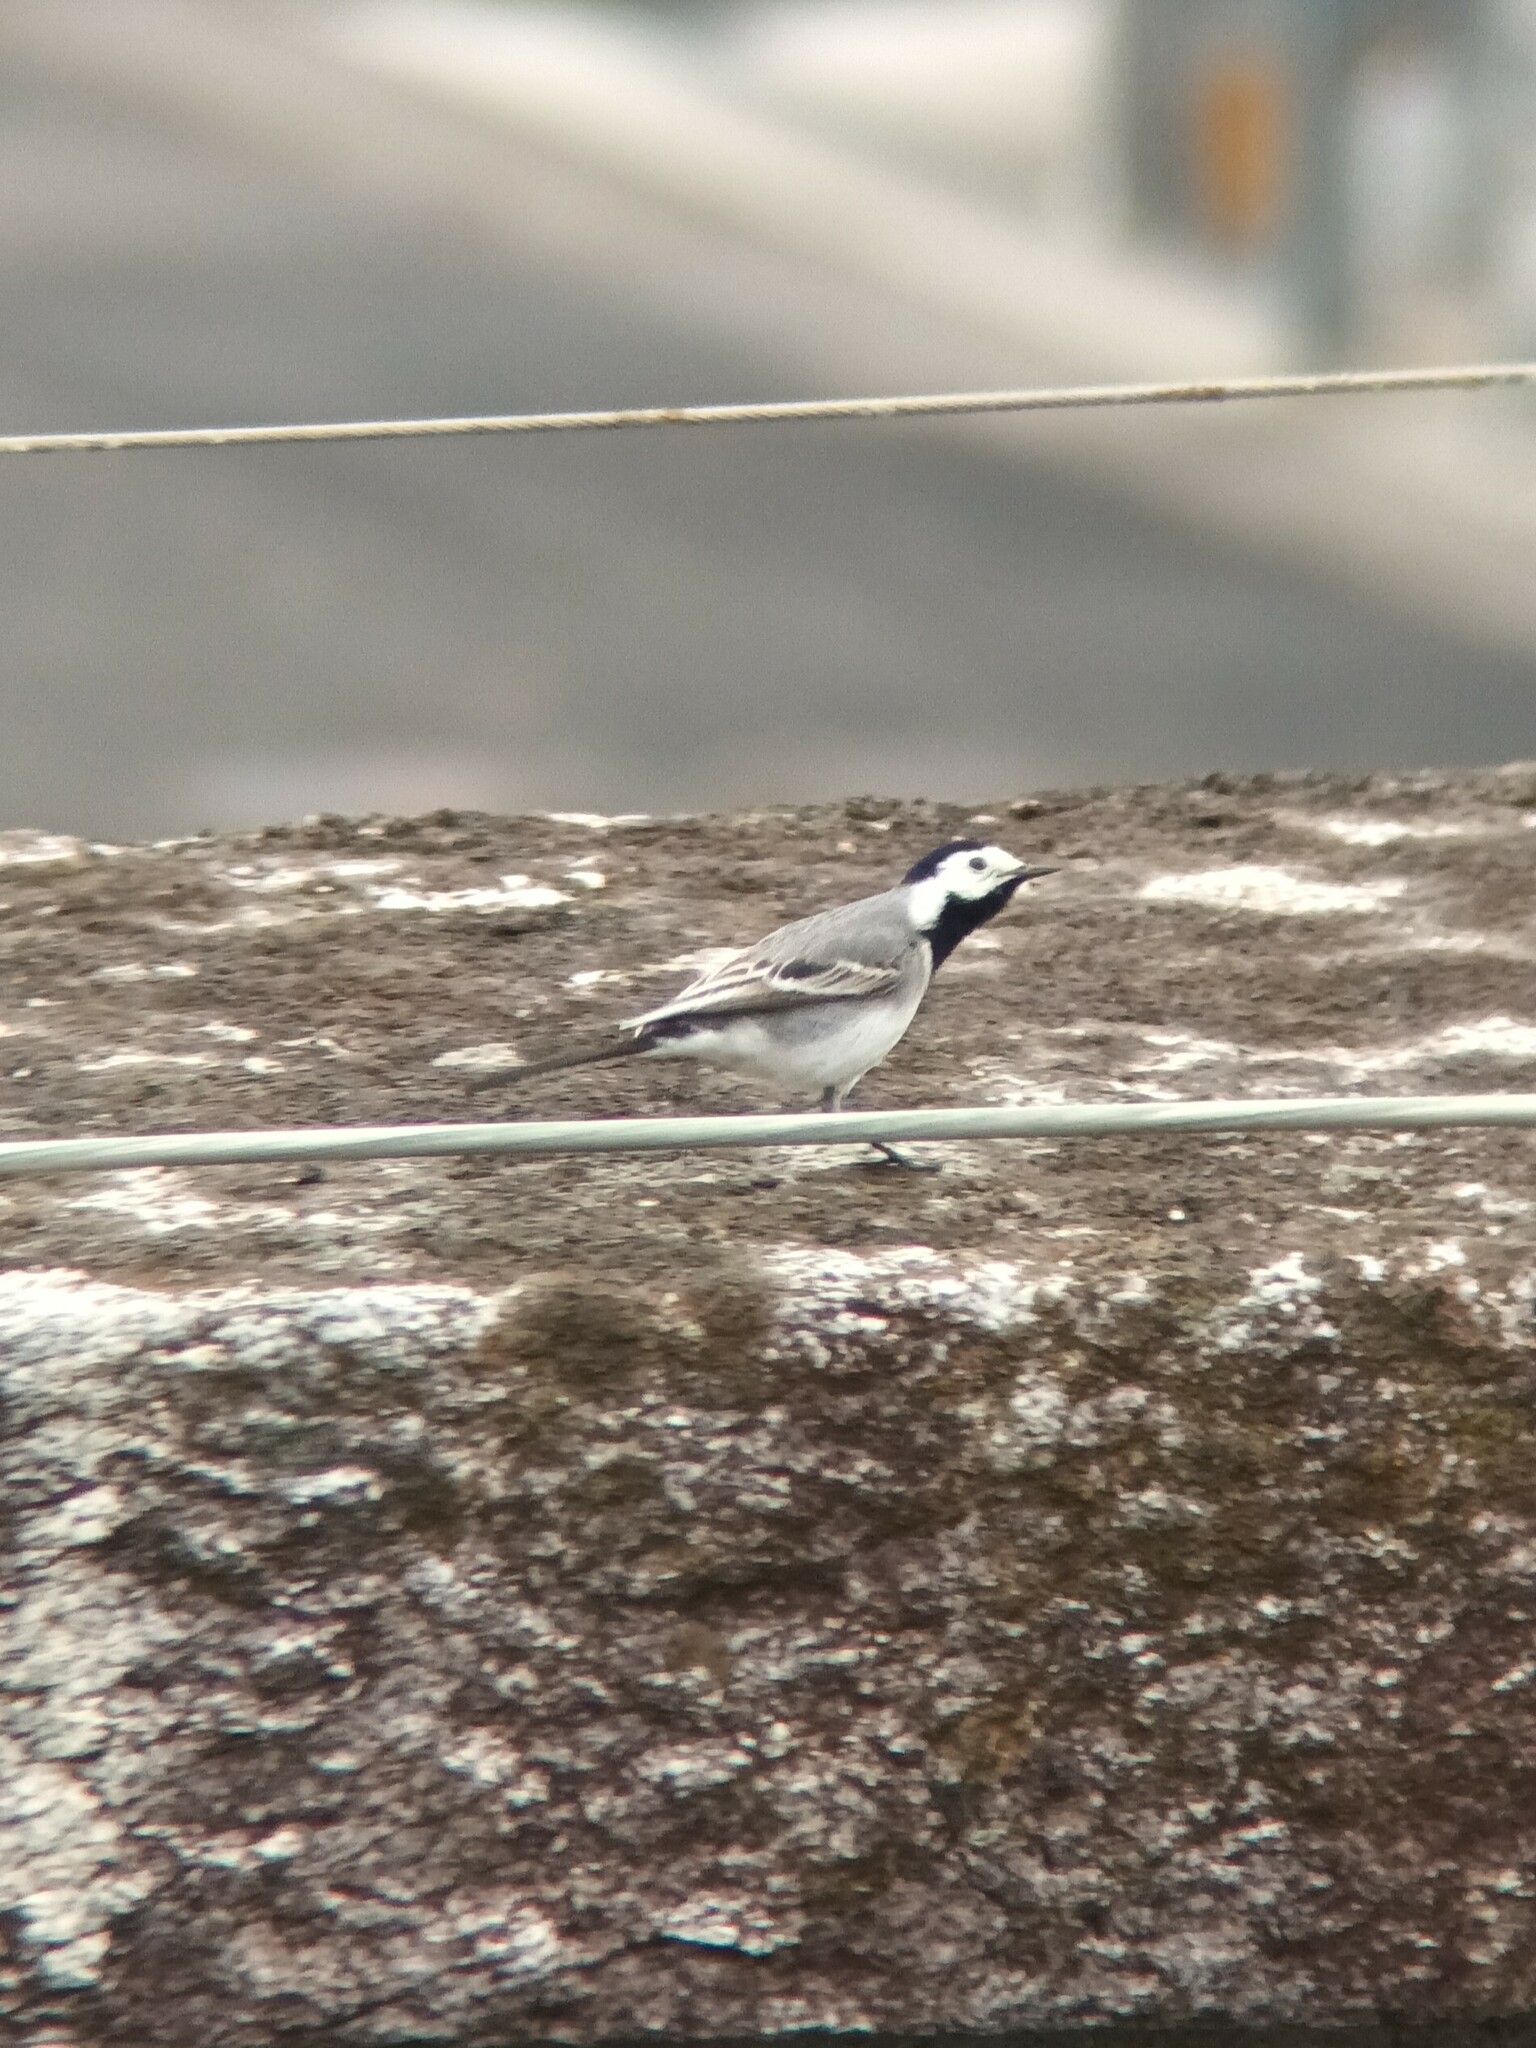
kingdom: Animalia
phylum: Chordata
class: Aves
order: Passeriformes
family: Motacillidae
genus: Motacilla
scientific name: Motacilla alba
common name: White wagtail
